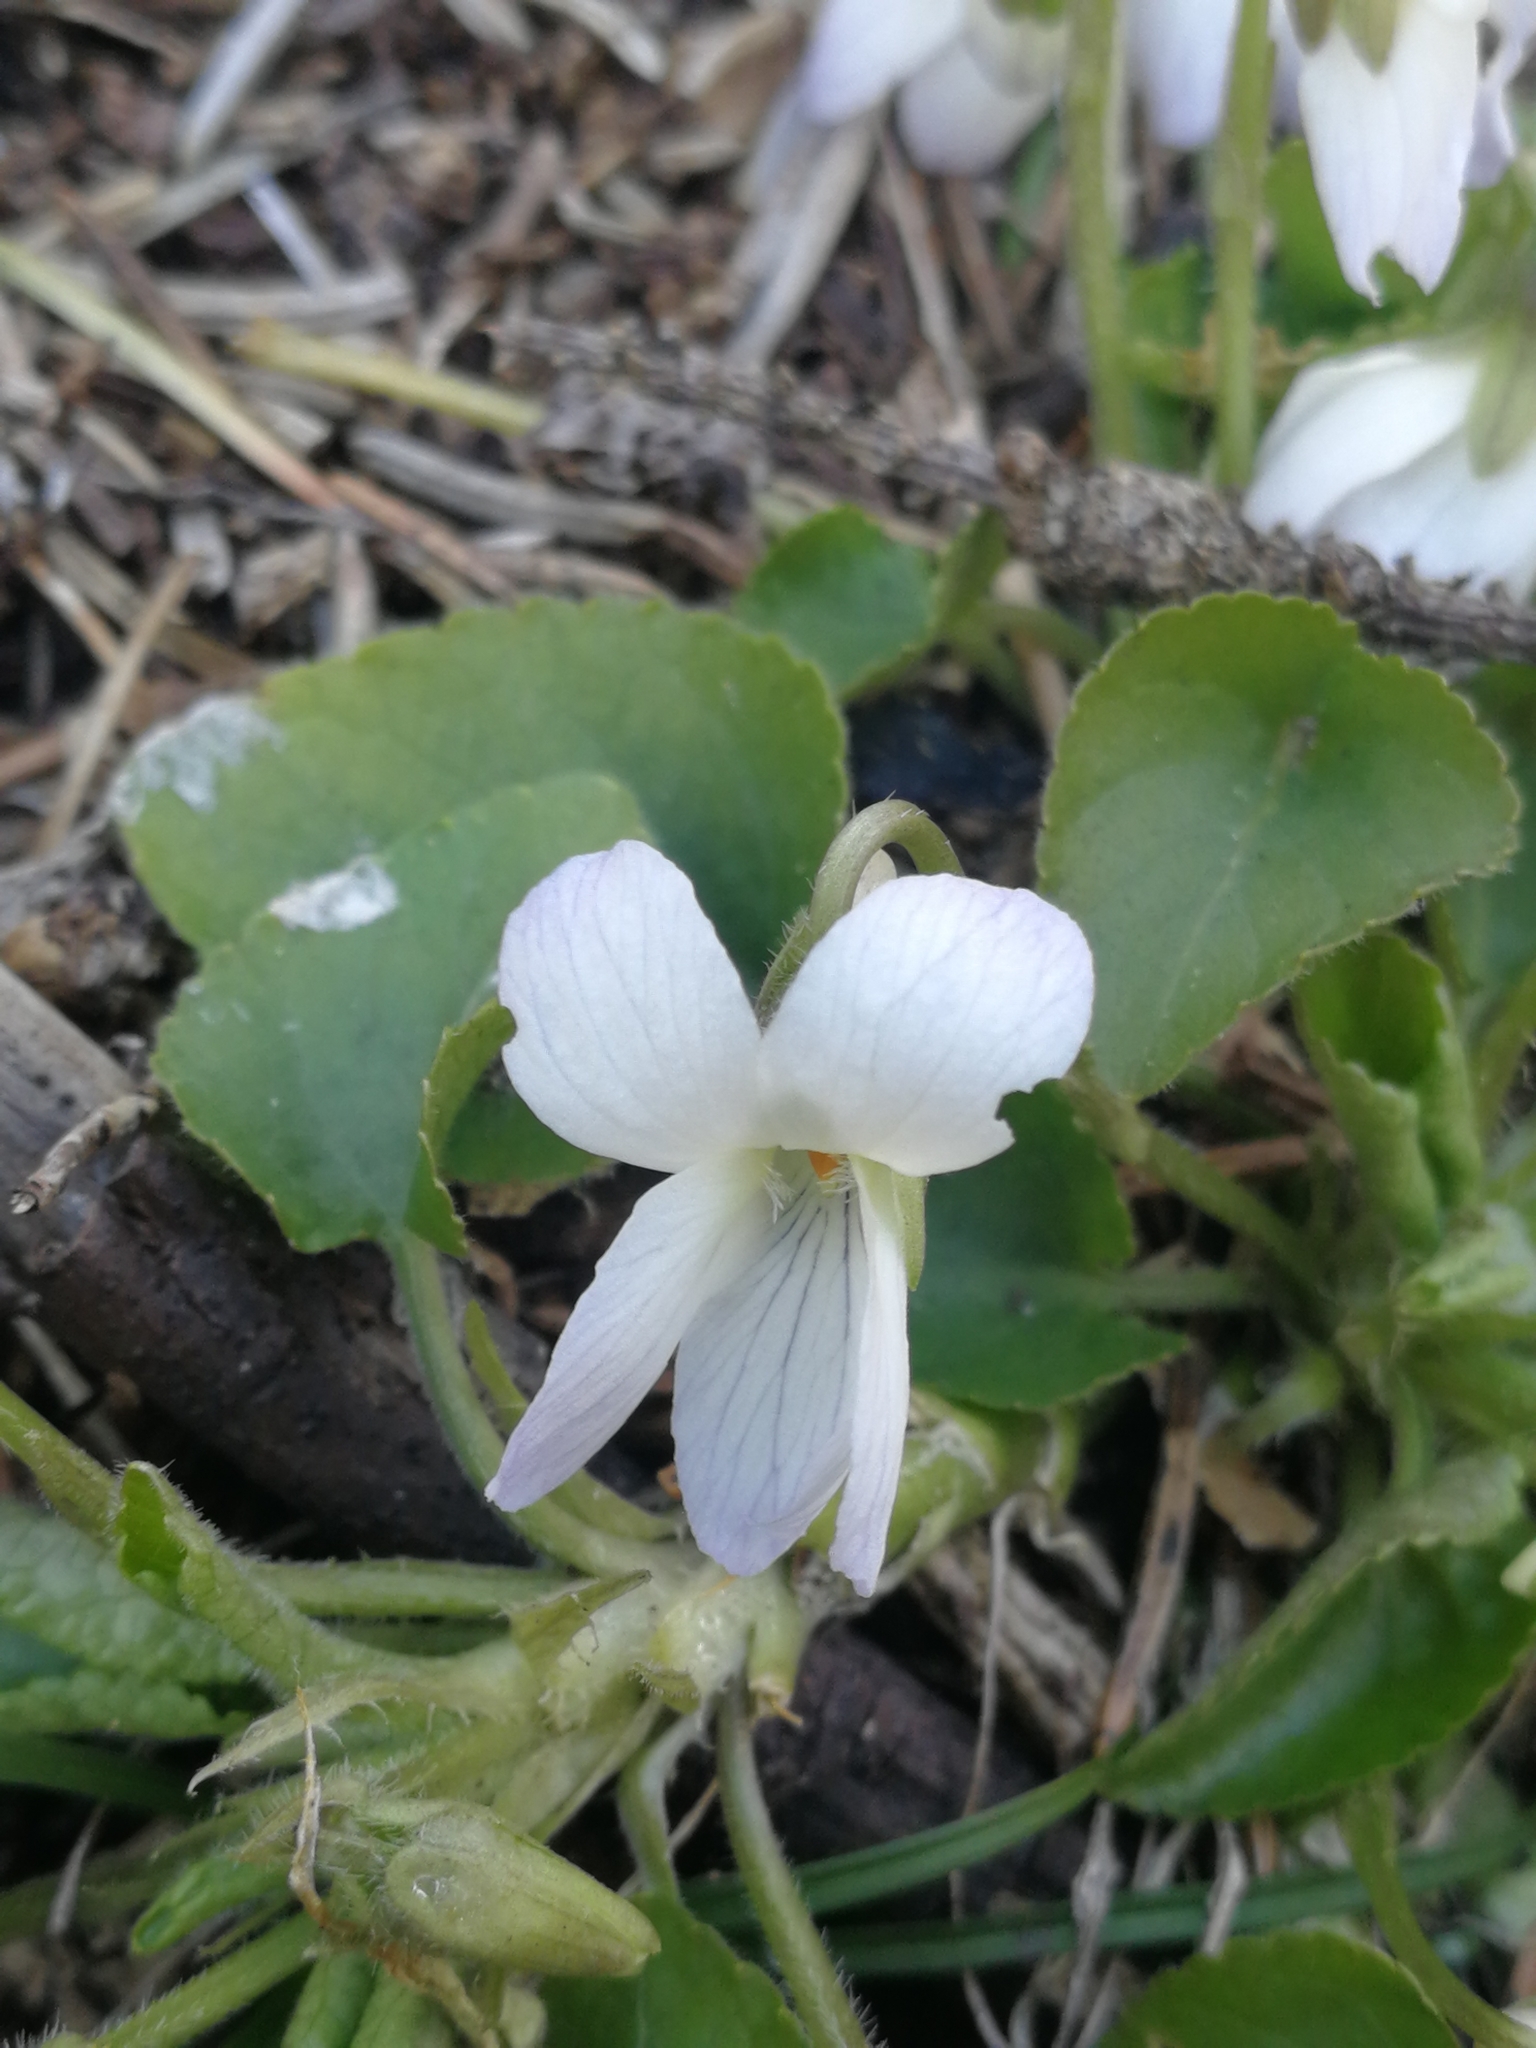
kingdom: Plantae
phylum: Tracheophyta
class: Magnoliopsida
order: Malpighiales
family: Violaceae
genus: Viola
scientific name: Viola alba
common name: White violet
